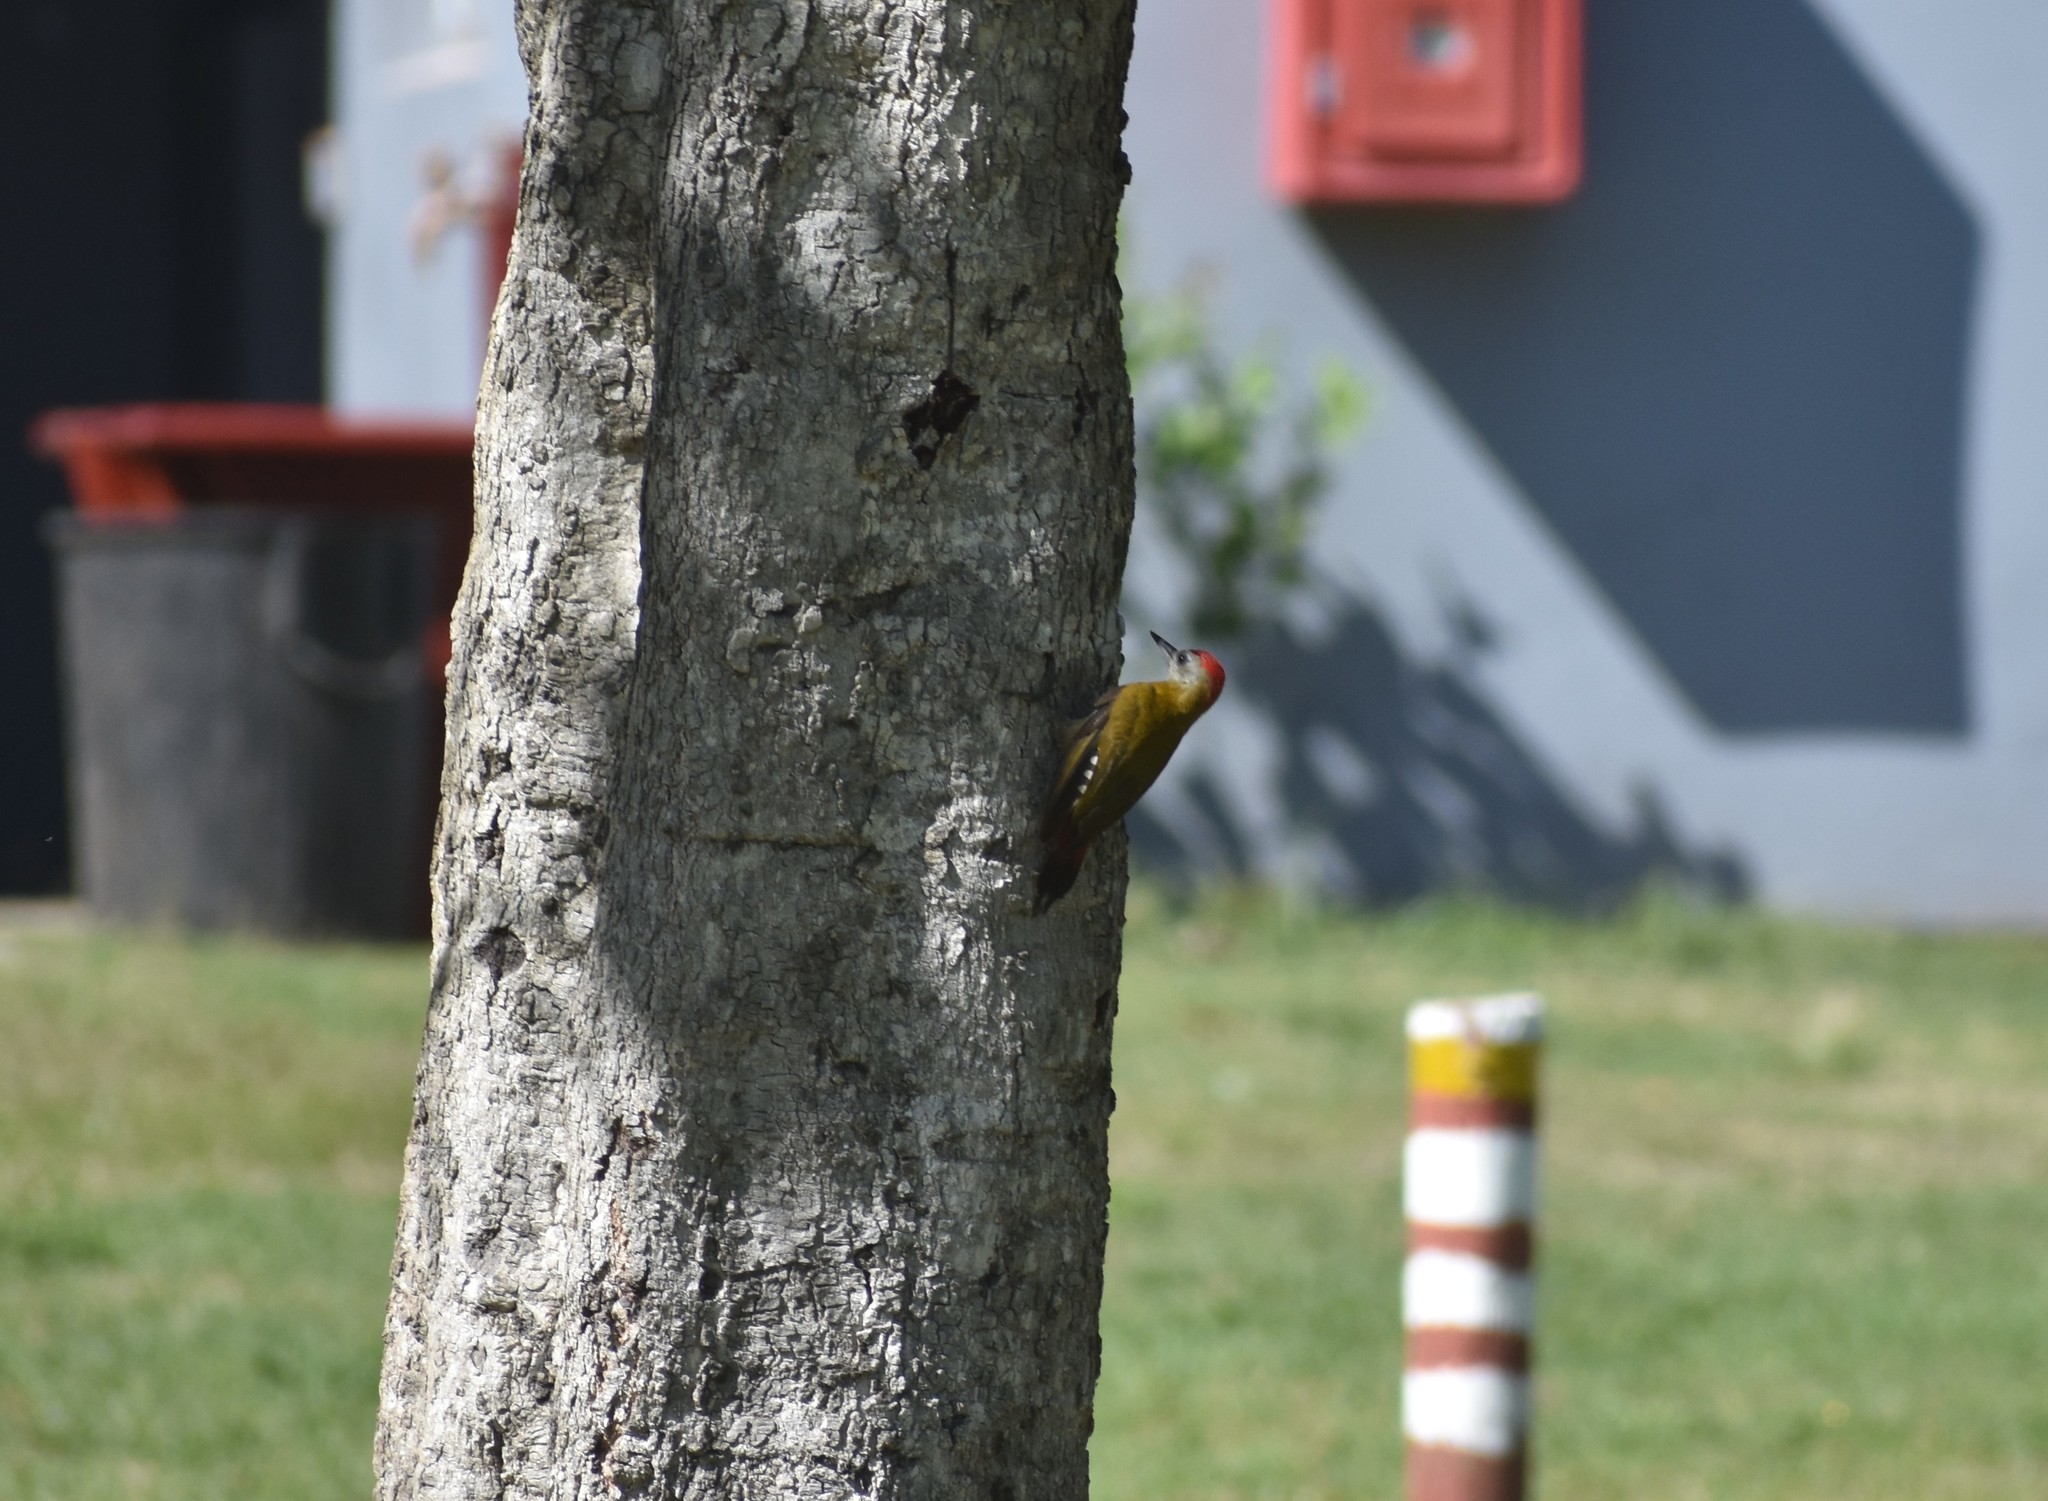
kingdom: Animalia
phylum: Chordata
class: Aves
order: Piciformes
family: Picidae
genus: Dendropicos
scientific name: Dendropicos griseocephalus
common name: Olive woodpecker
